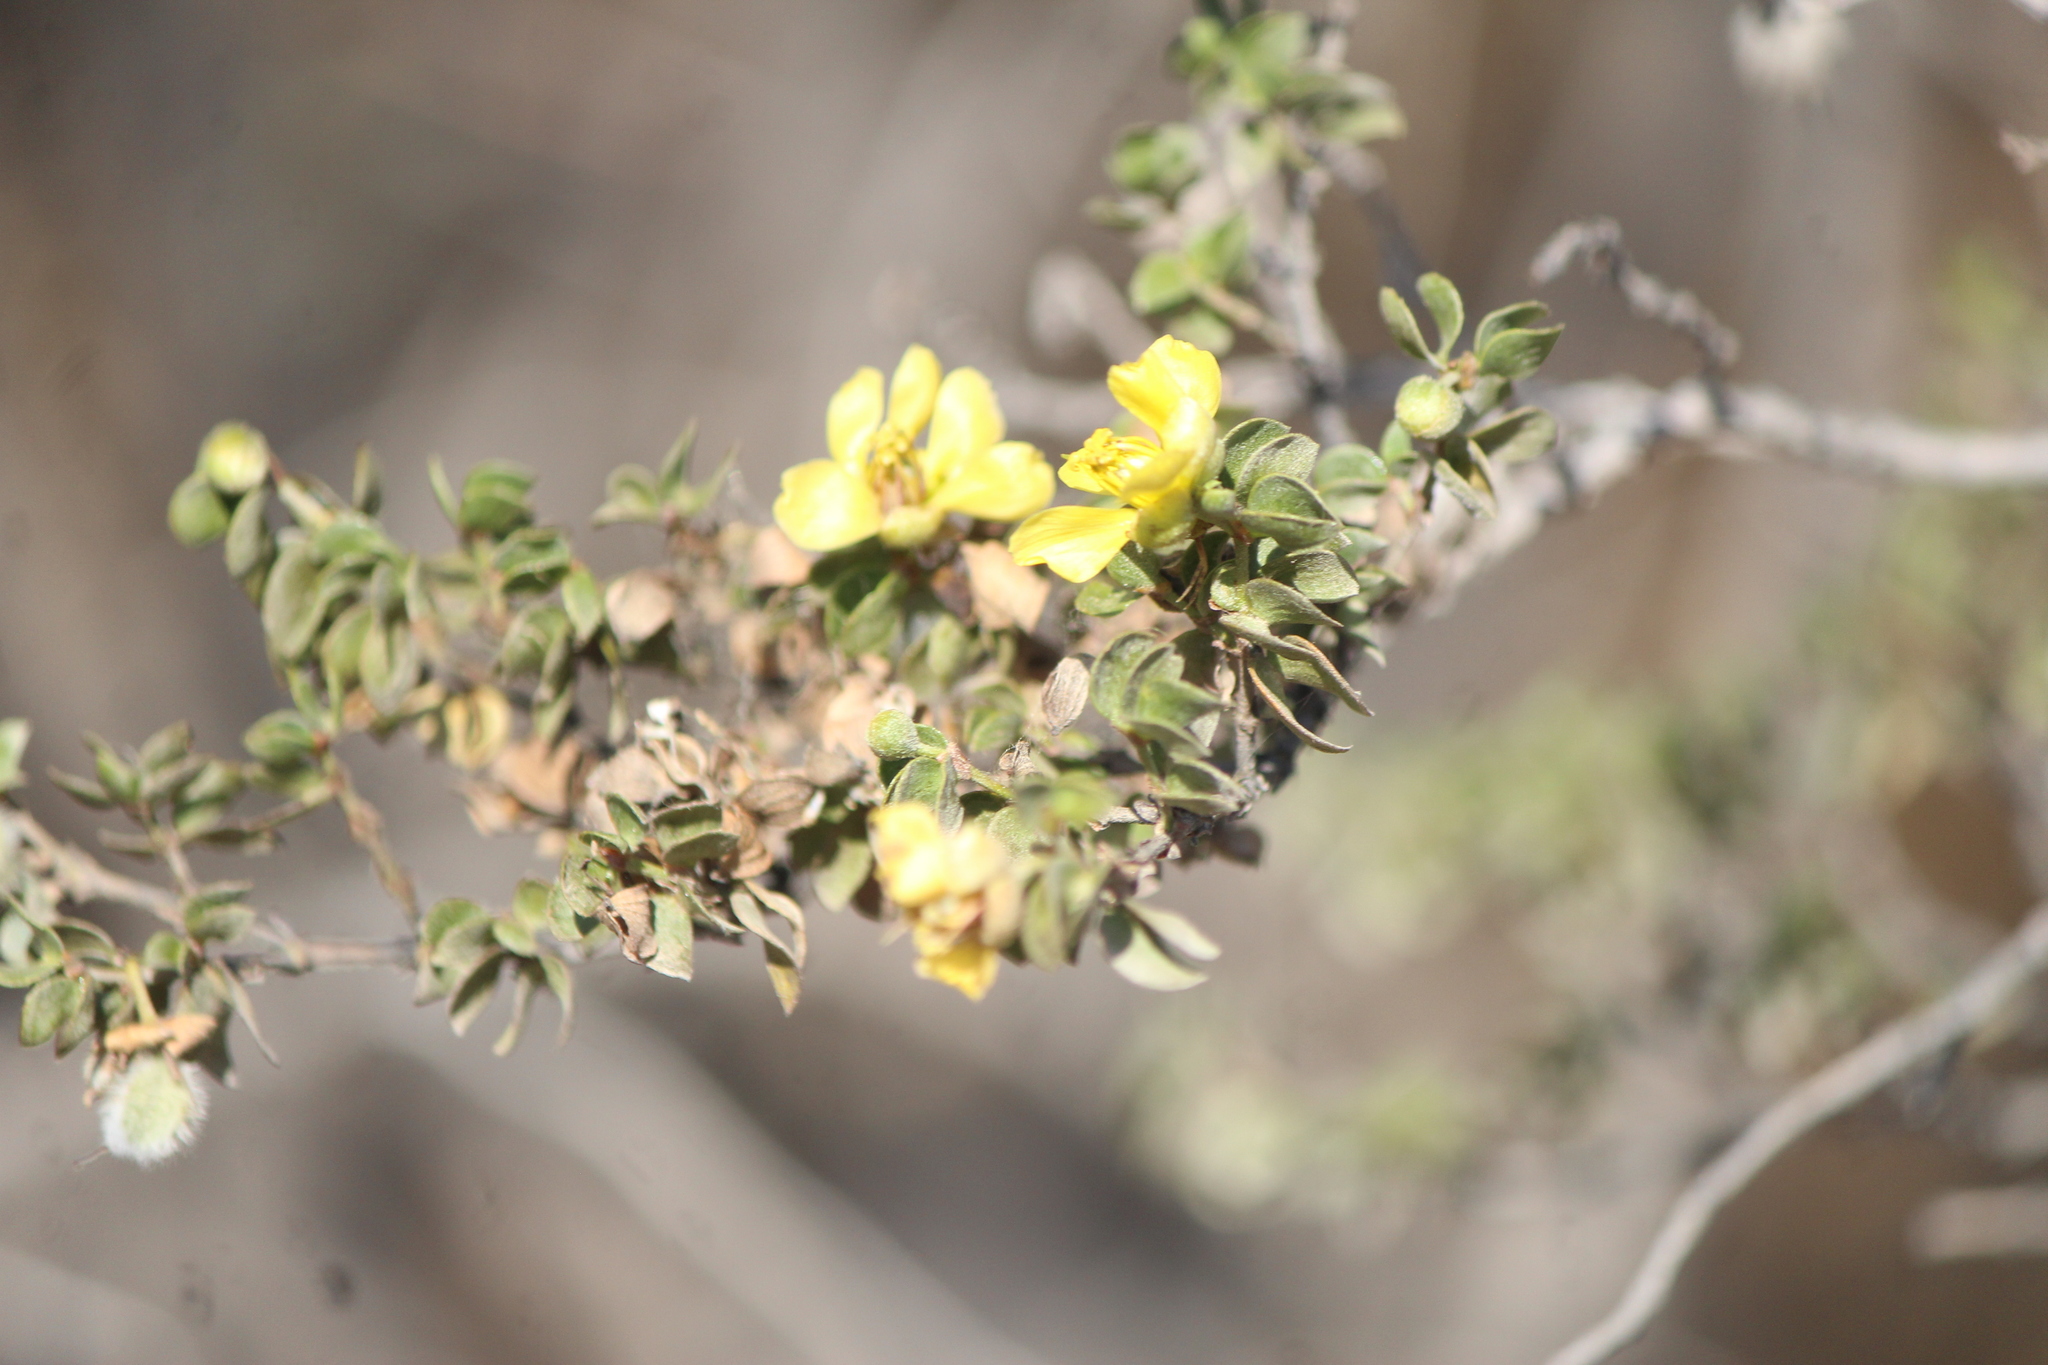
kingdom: Plantae
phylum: Tracheophyta
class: Magnoliopsida
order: Zygophyllales
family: Zygophyllaceae
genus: Larrea
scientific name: Larrea tridentata
